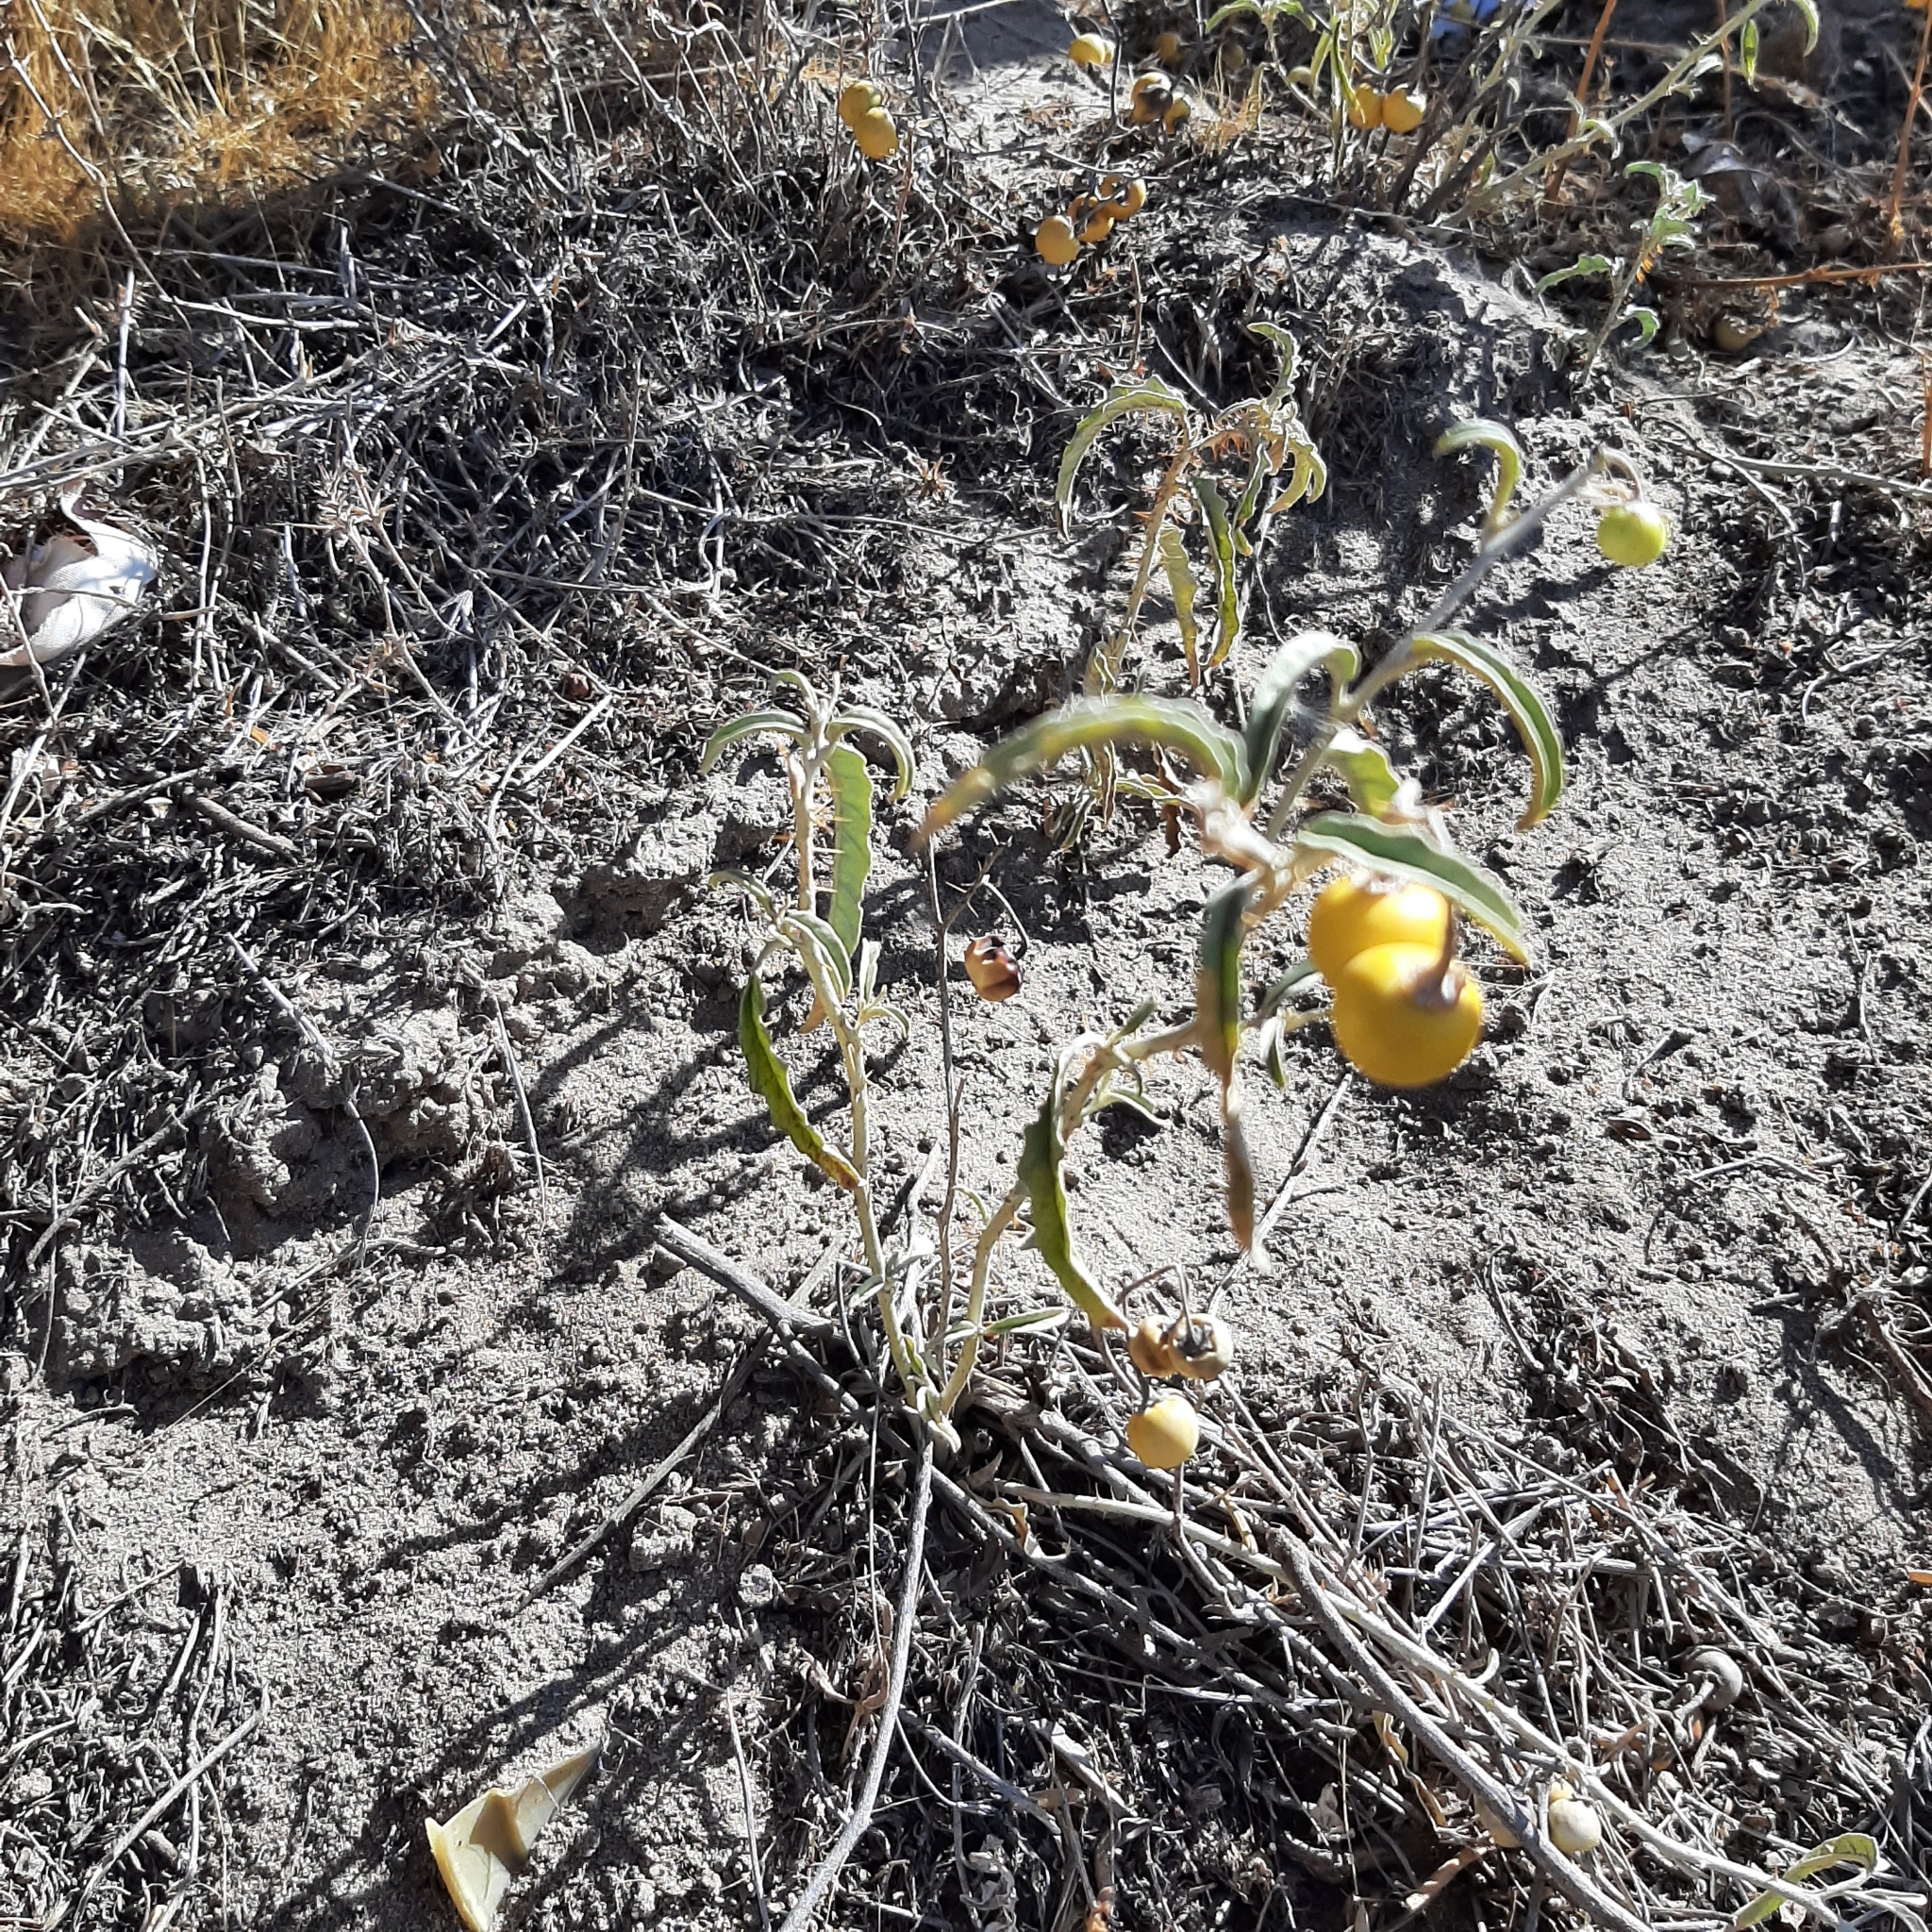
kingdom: Plantae
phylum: Tracheophyta
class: Magnoliopsida
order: Solanales
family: Solanaceae
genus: Solanum
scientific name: Solanum elaeagnifolium
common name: Silverleaf nightshade
